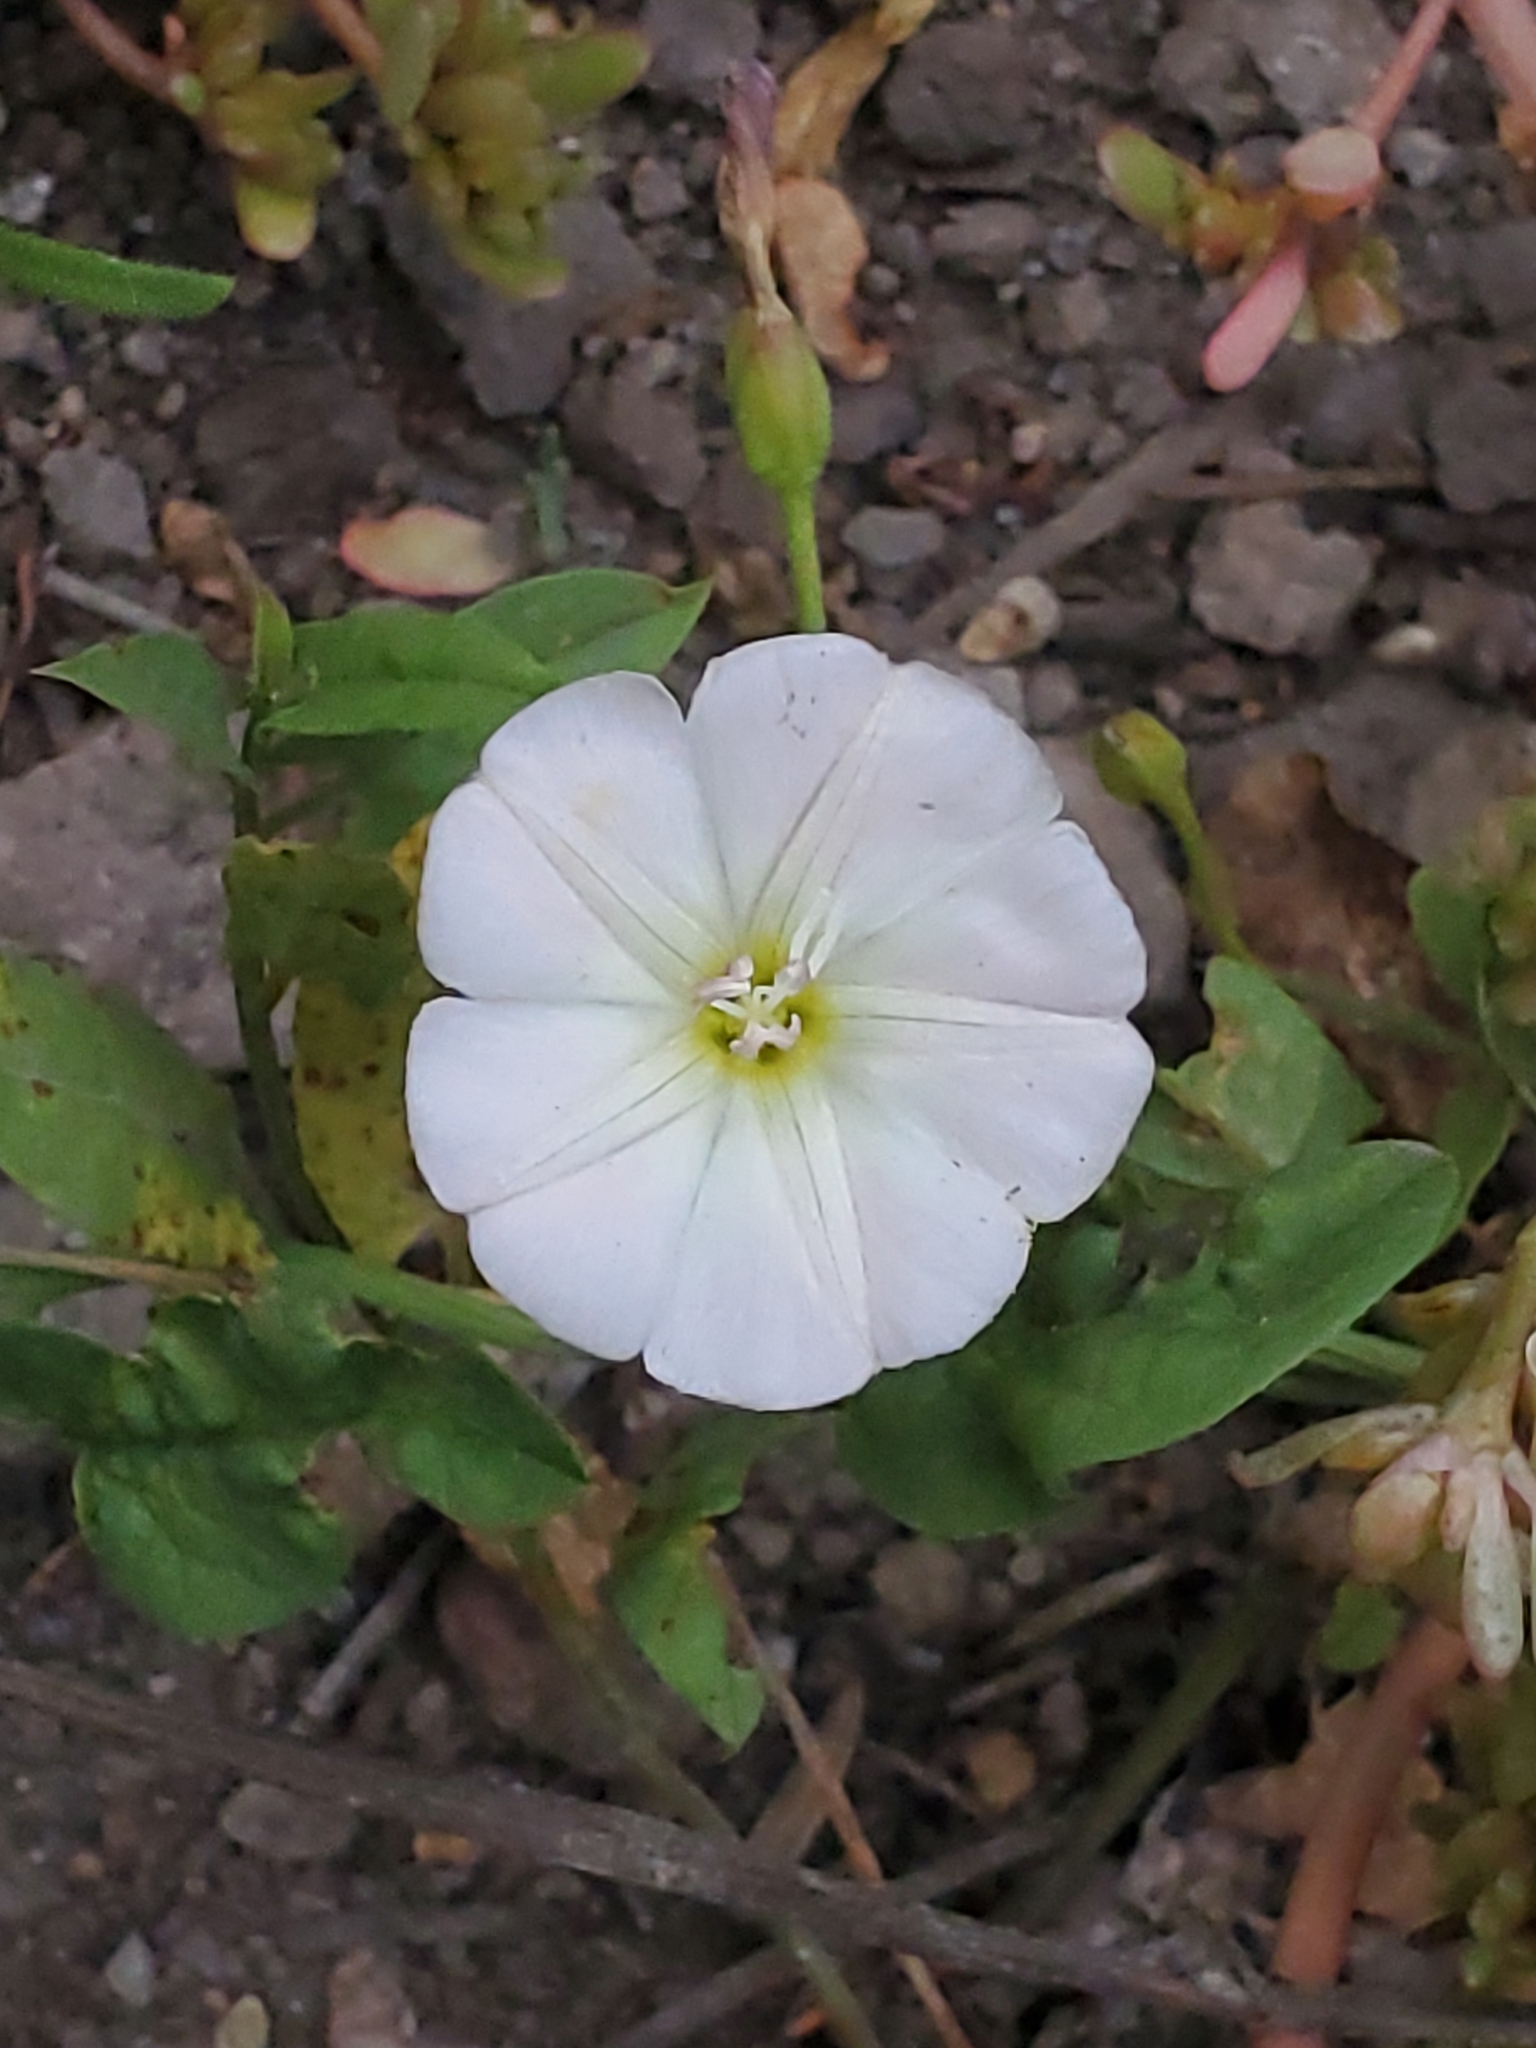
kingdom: Plantae
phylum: Tracheophyta
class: Magnoliopsida
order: Solanales
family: Convolvulaceae
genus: Convolvulus
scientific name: Convolvulus arvensis
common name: Field bindweed
